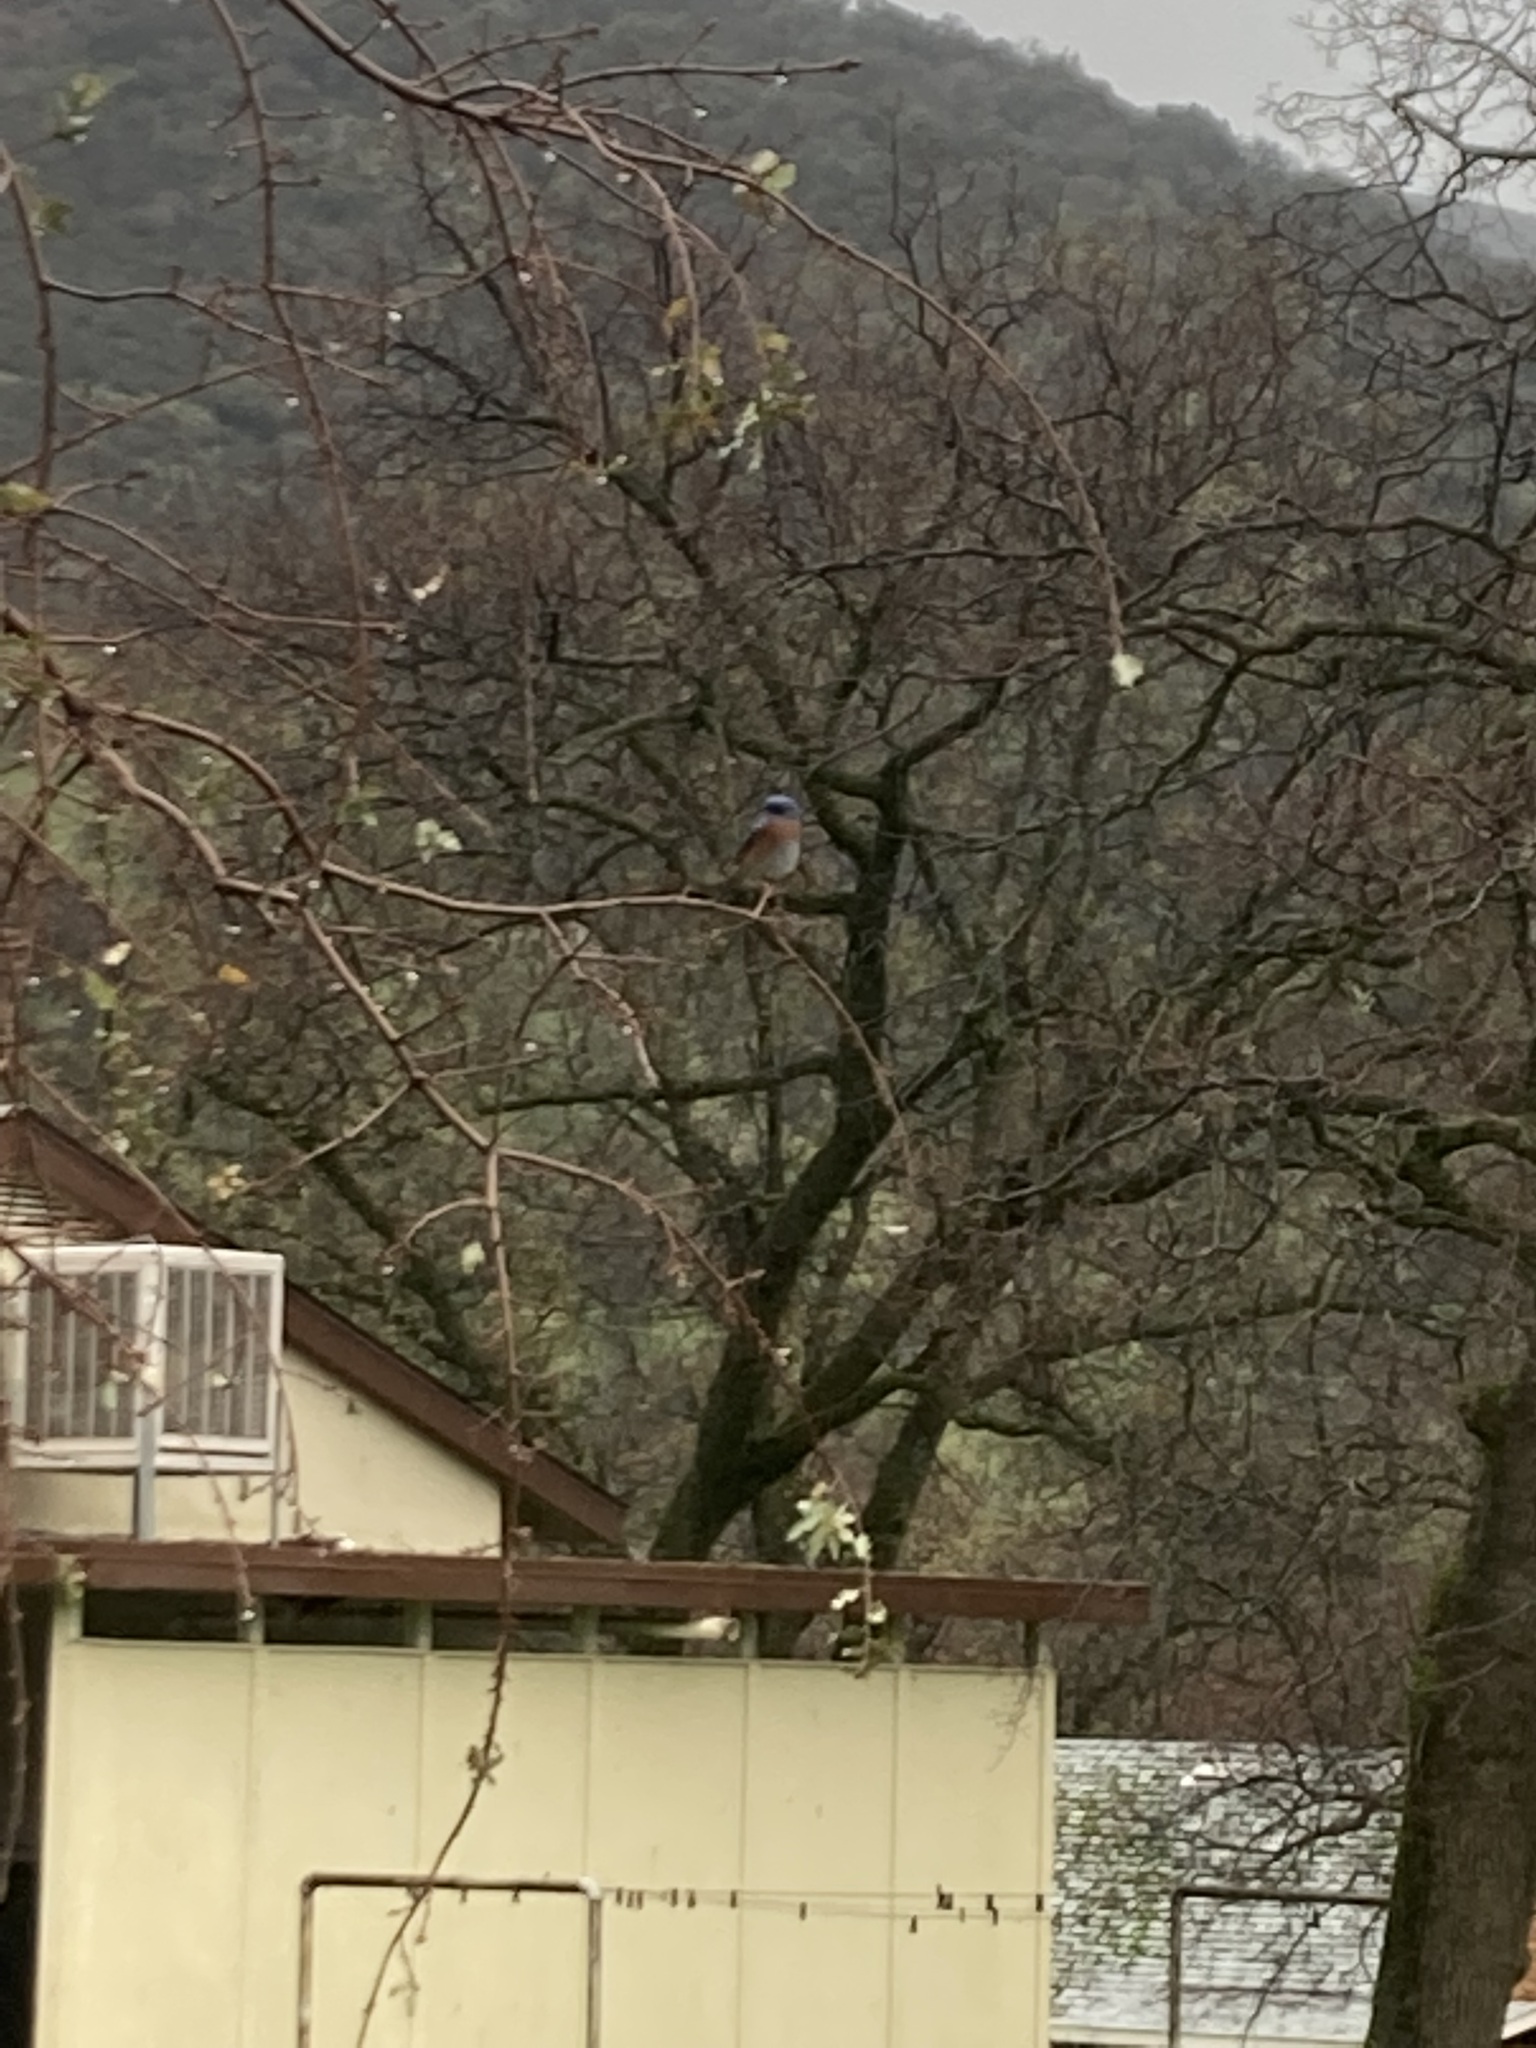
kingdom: Animalia
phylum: Chordata
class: Aves
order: Passeriformes
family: Turdidae
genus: Sialia
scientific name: Sialia mexicana
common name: Western bluebird
